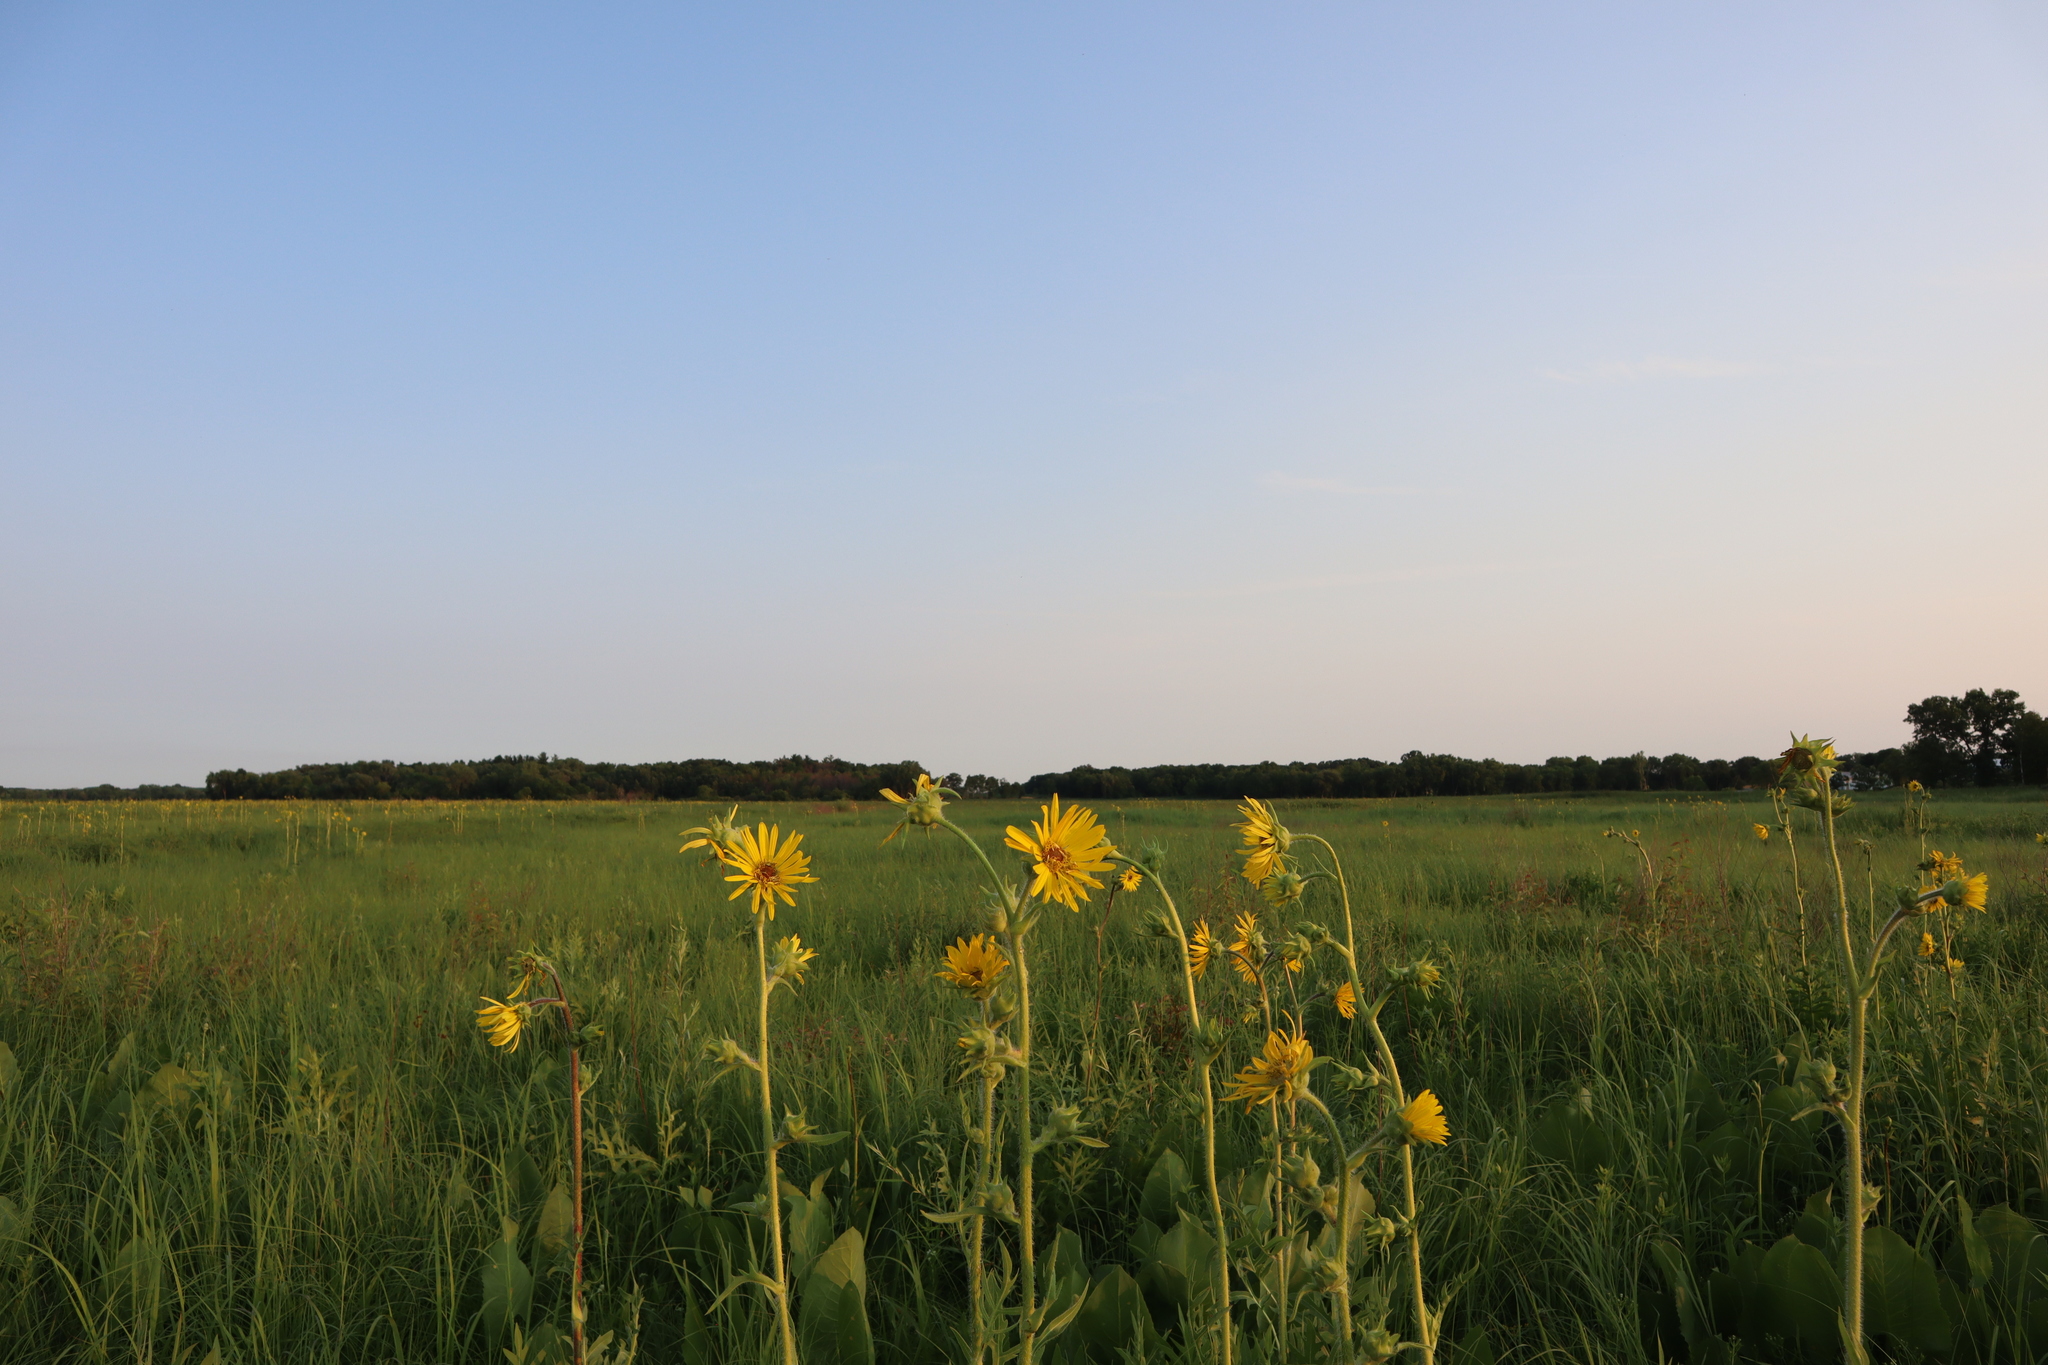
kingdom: Plantae
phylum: Tracheophyta
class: Magnoliopsida
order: Asterales
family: Asteraceae
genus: Silphium
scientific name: Silphium laciniatum
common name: Polarplant
